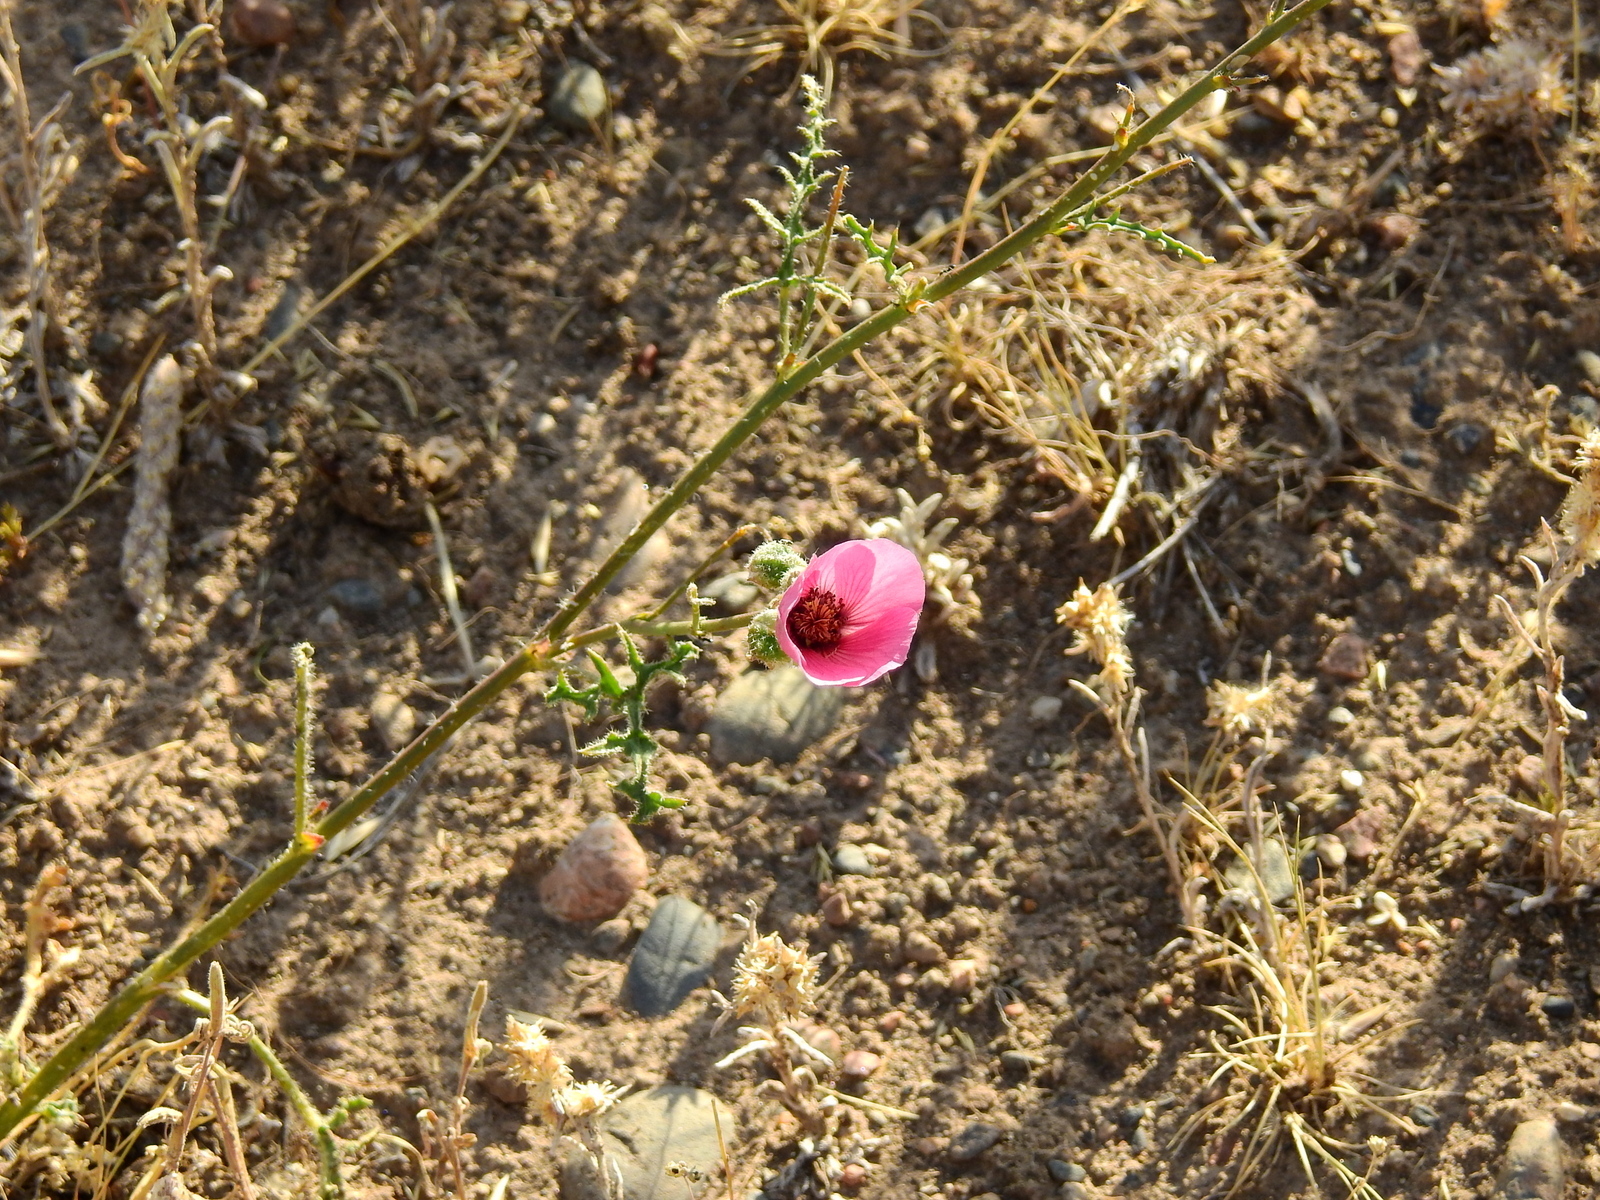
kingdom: Plantae
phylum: Tracheophyta
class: Magnoliopsida
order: Malvales
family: Malvaceae
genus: Lecanophora
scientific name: Lecanophora heterophylla
